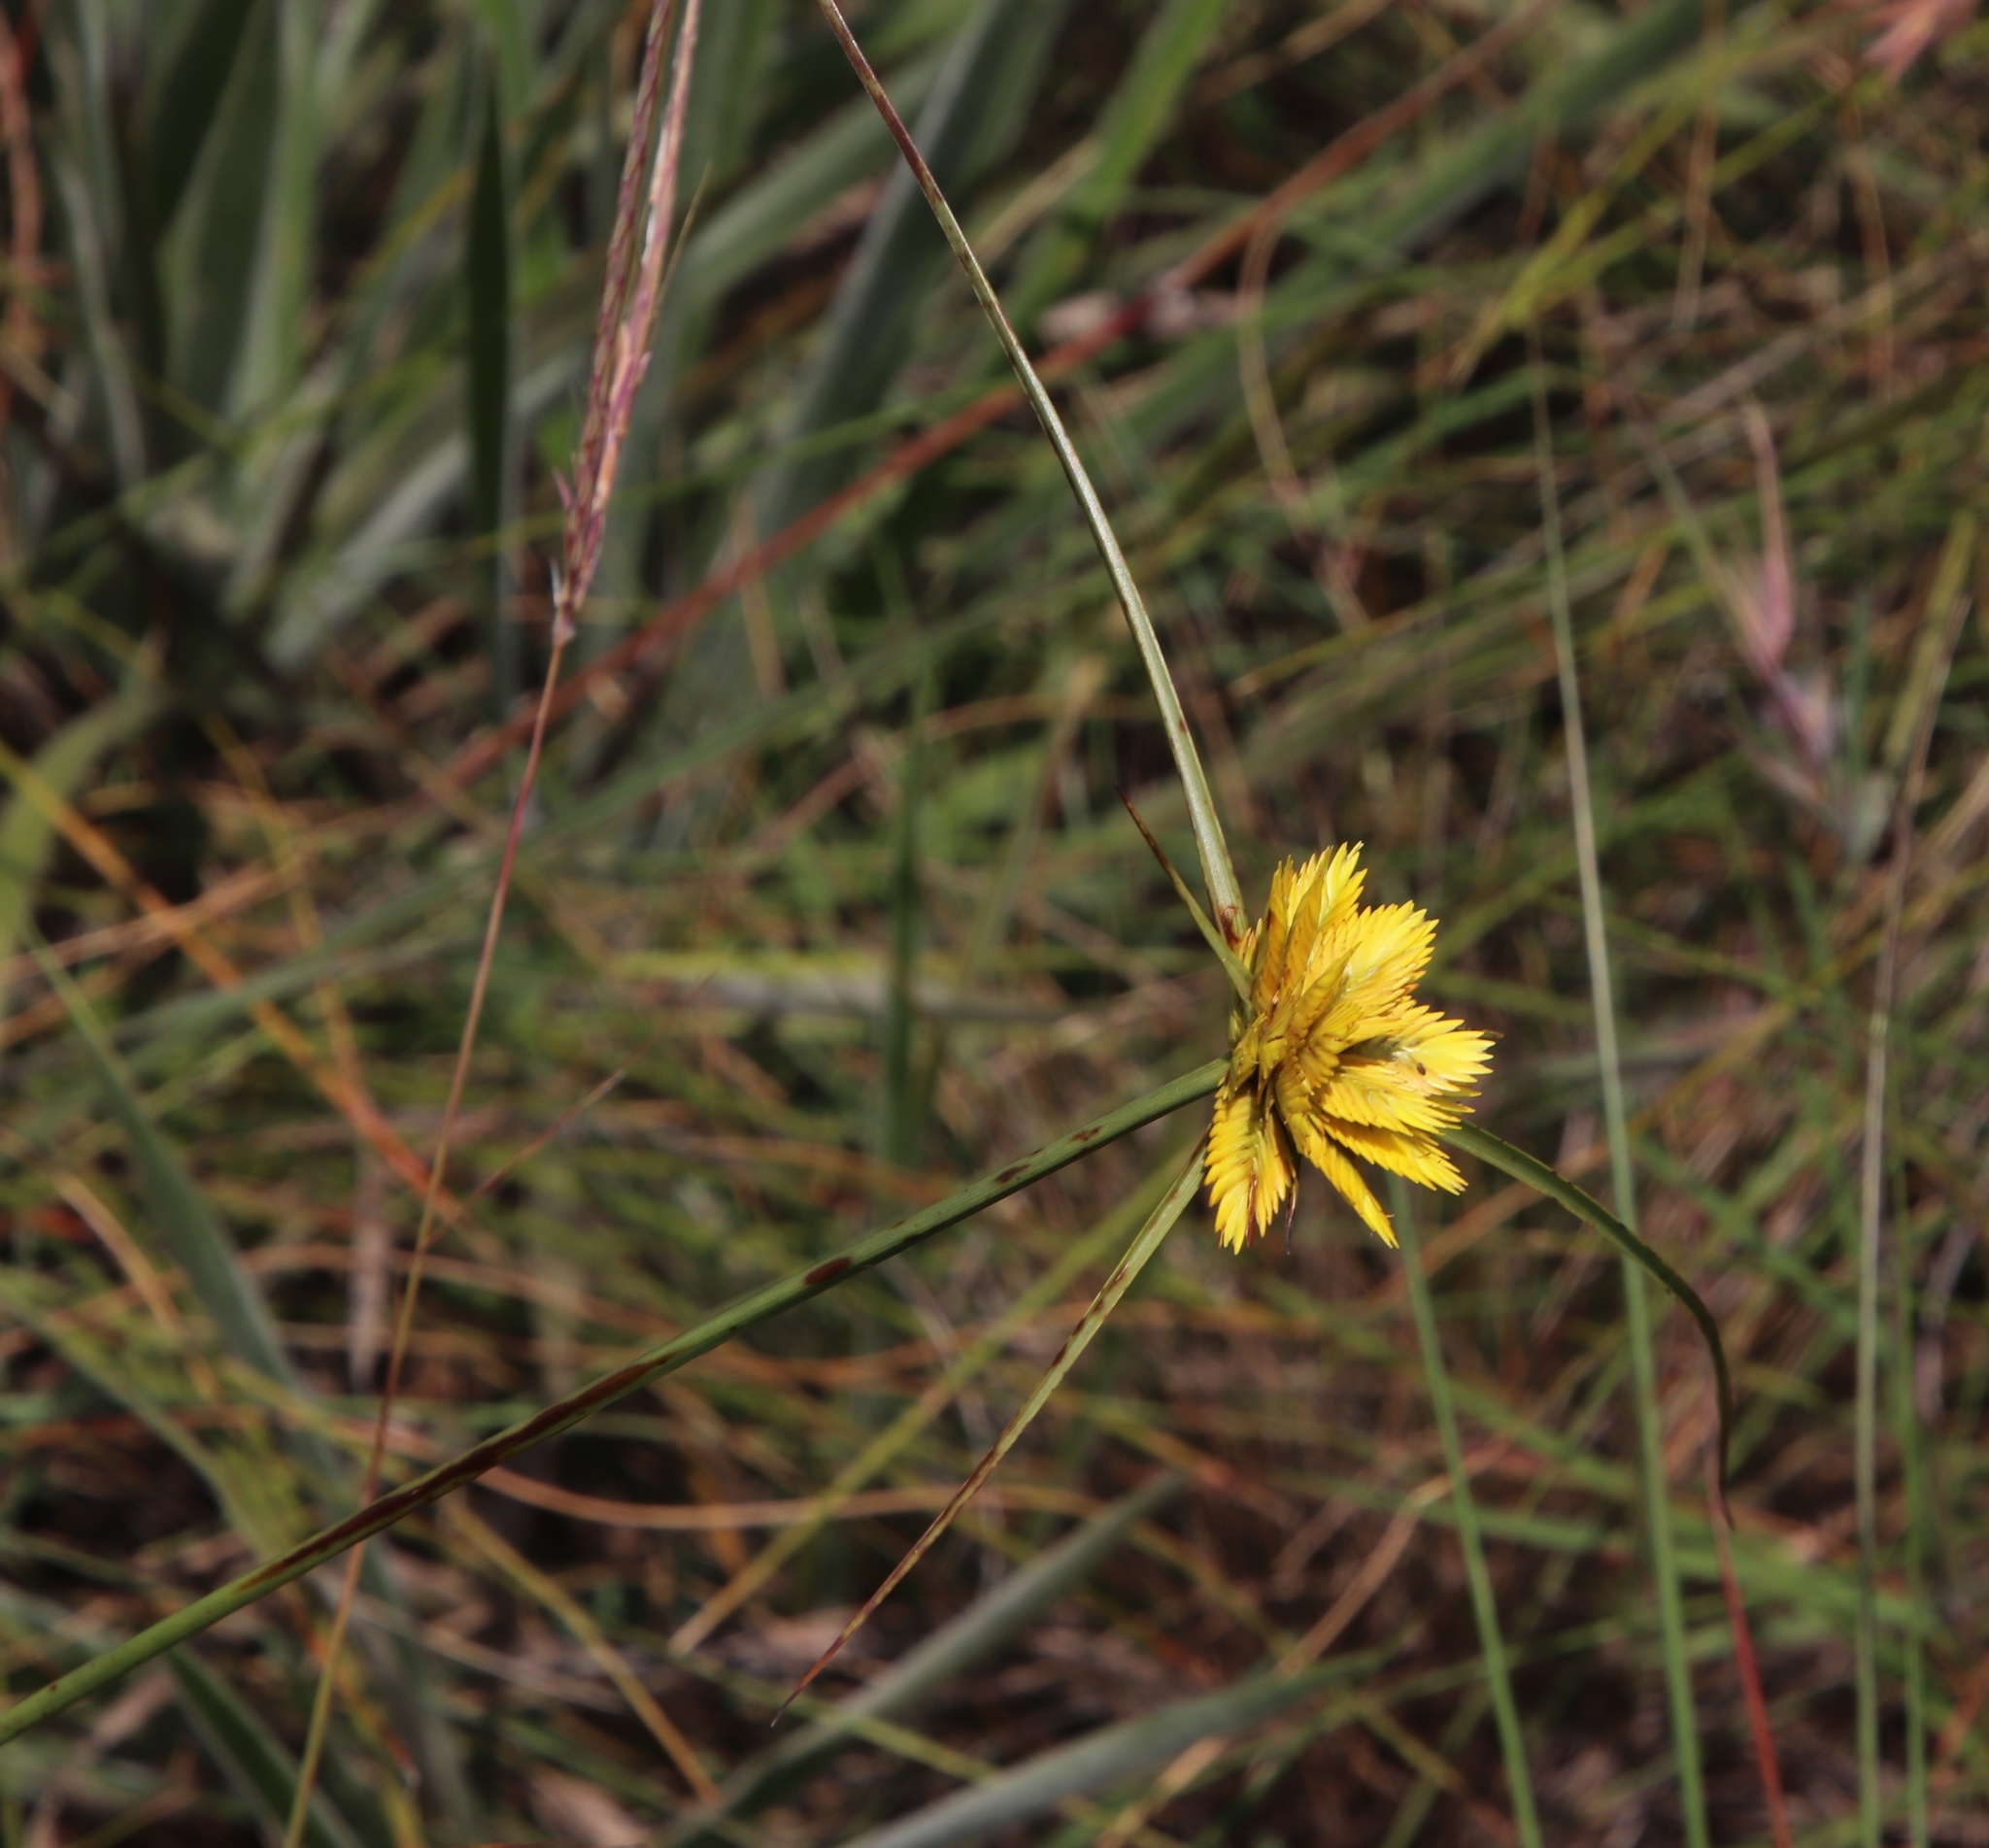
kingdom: Plantae
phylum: Tracheophyta
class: Liliopsida
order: Poales
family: Cyperaceae
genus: Cyperus
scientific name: Cyperus sphaerocephalus
